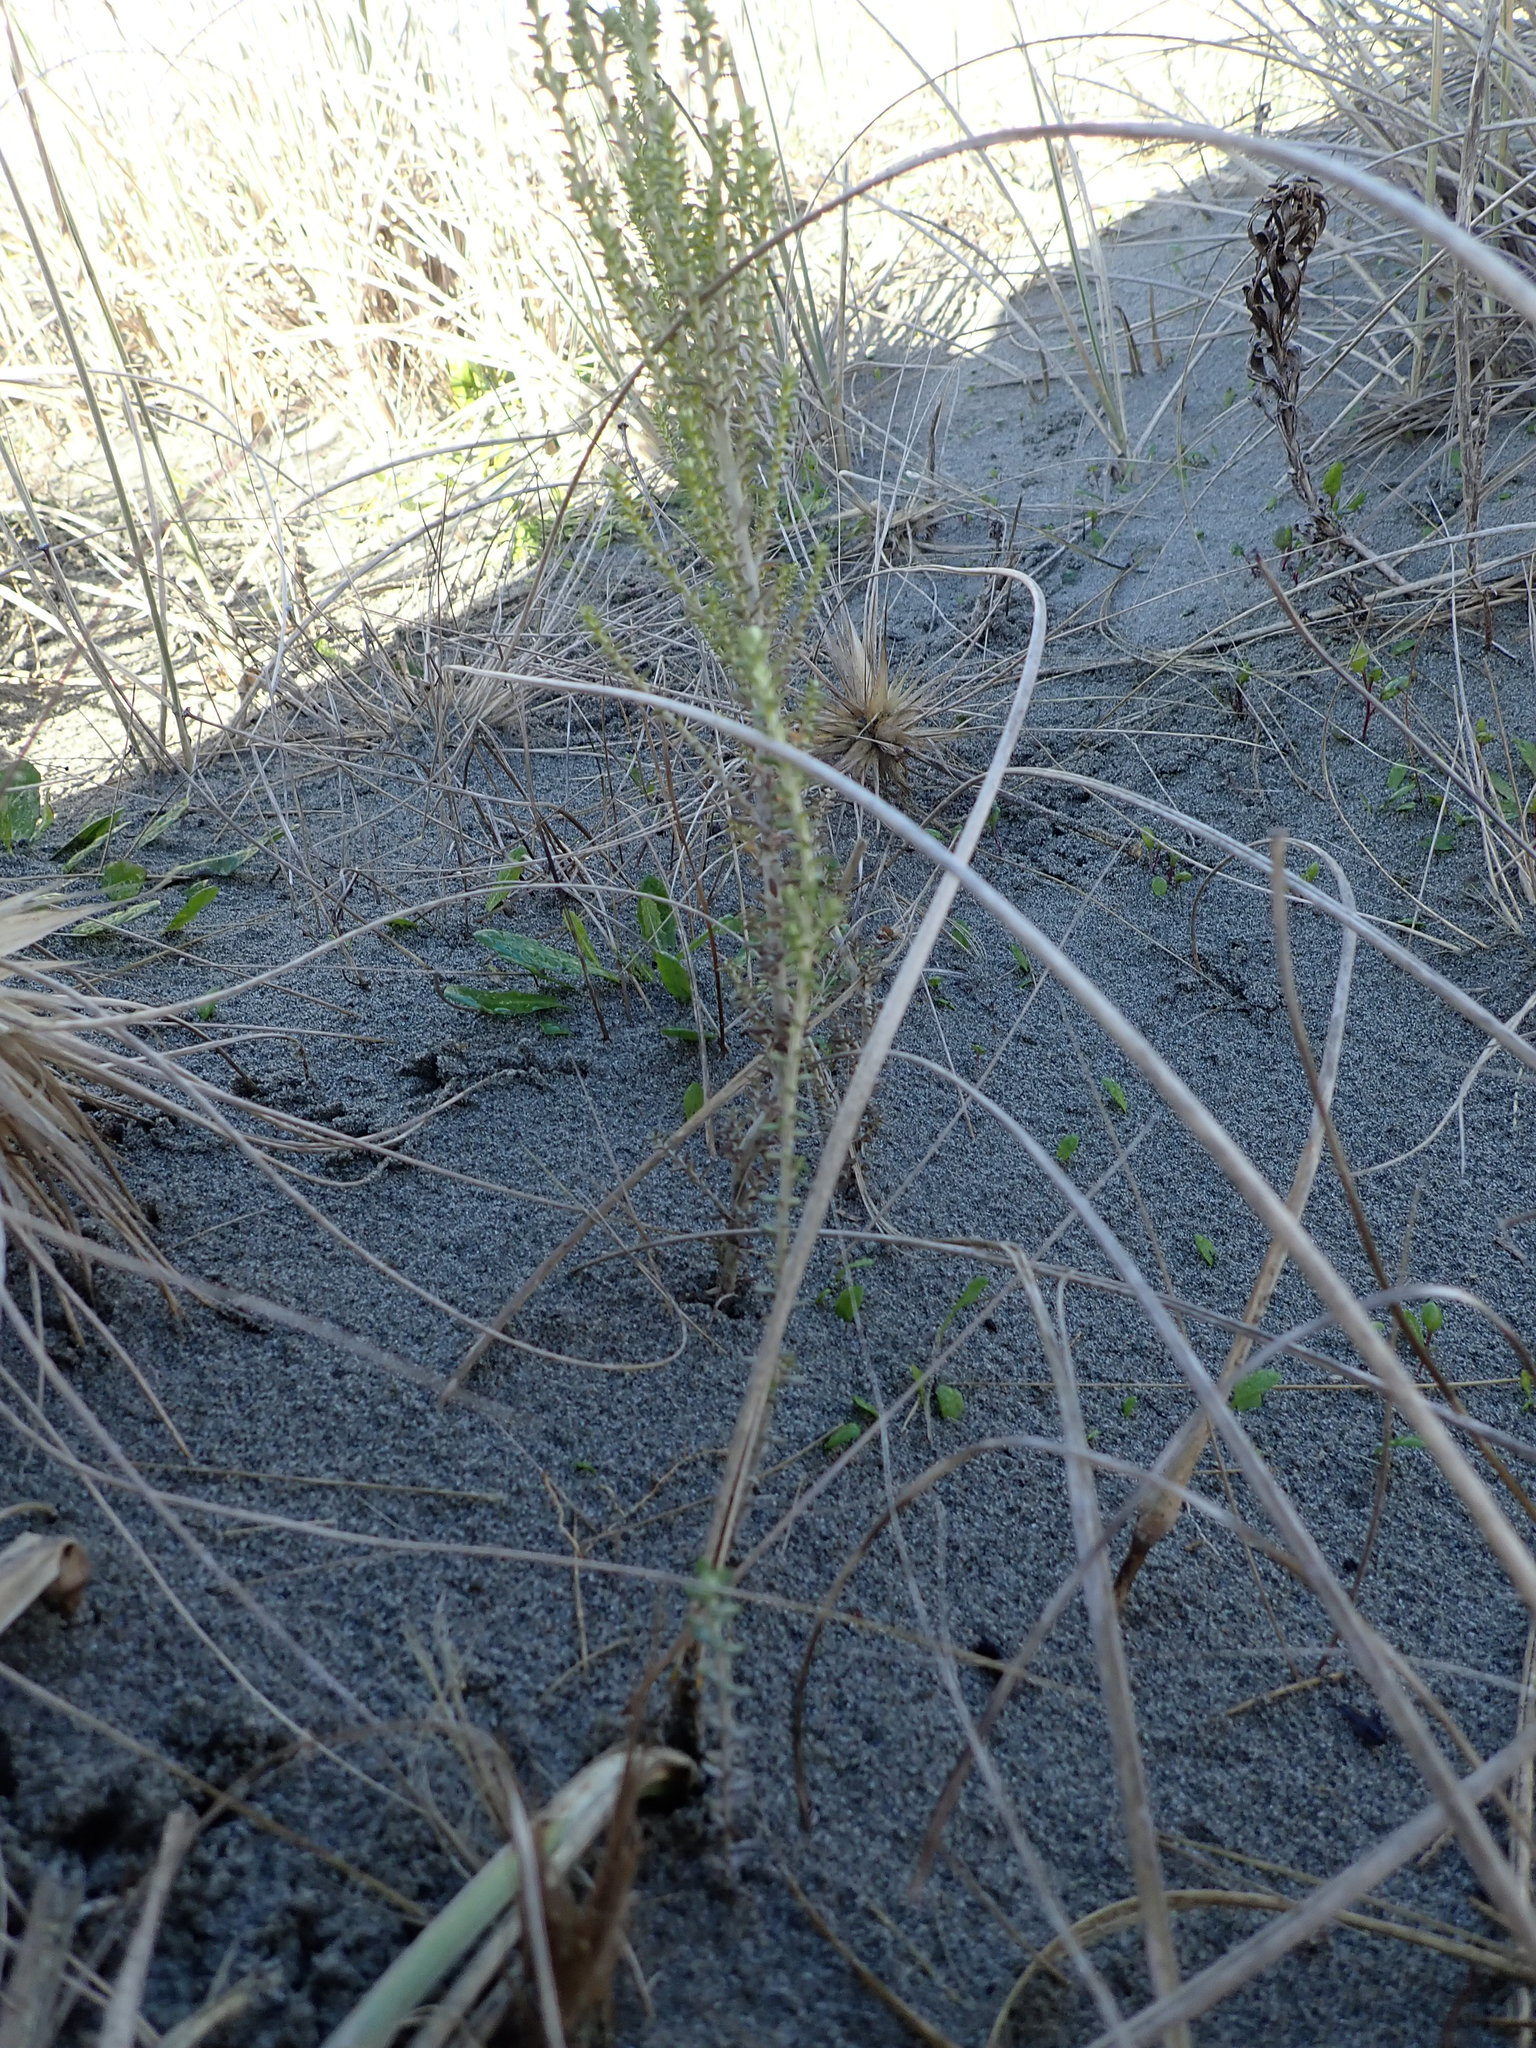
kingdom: Plantae
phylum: Tracheophyta
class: Magnoliopsida
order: Asterales
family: Asteraceae
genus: Ozothamnus
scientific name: Ozothamnus leptophyllus
